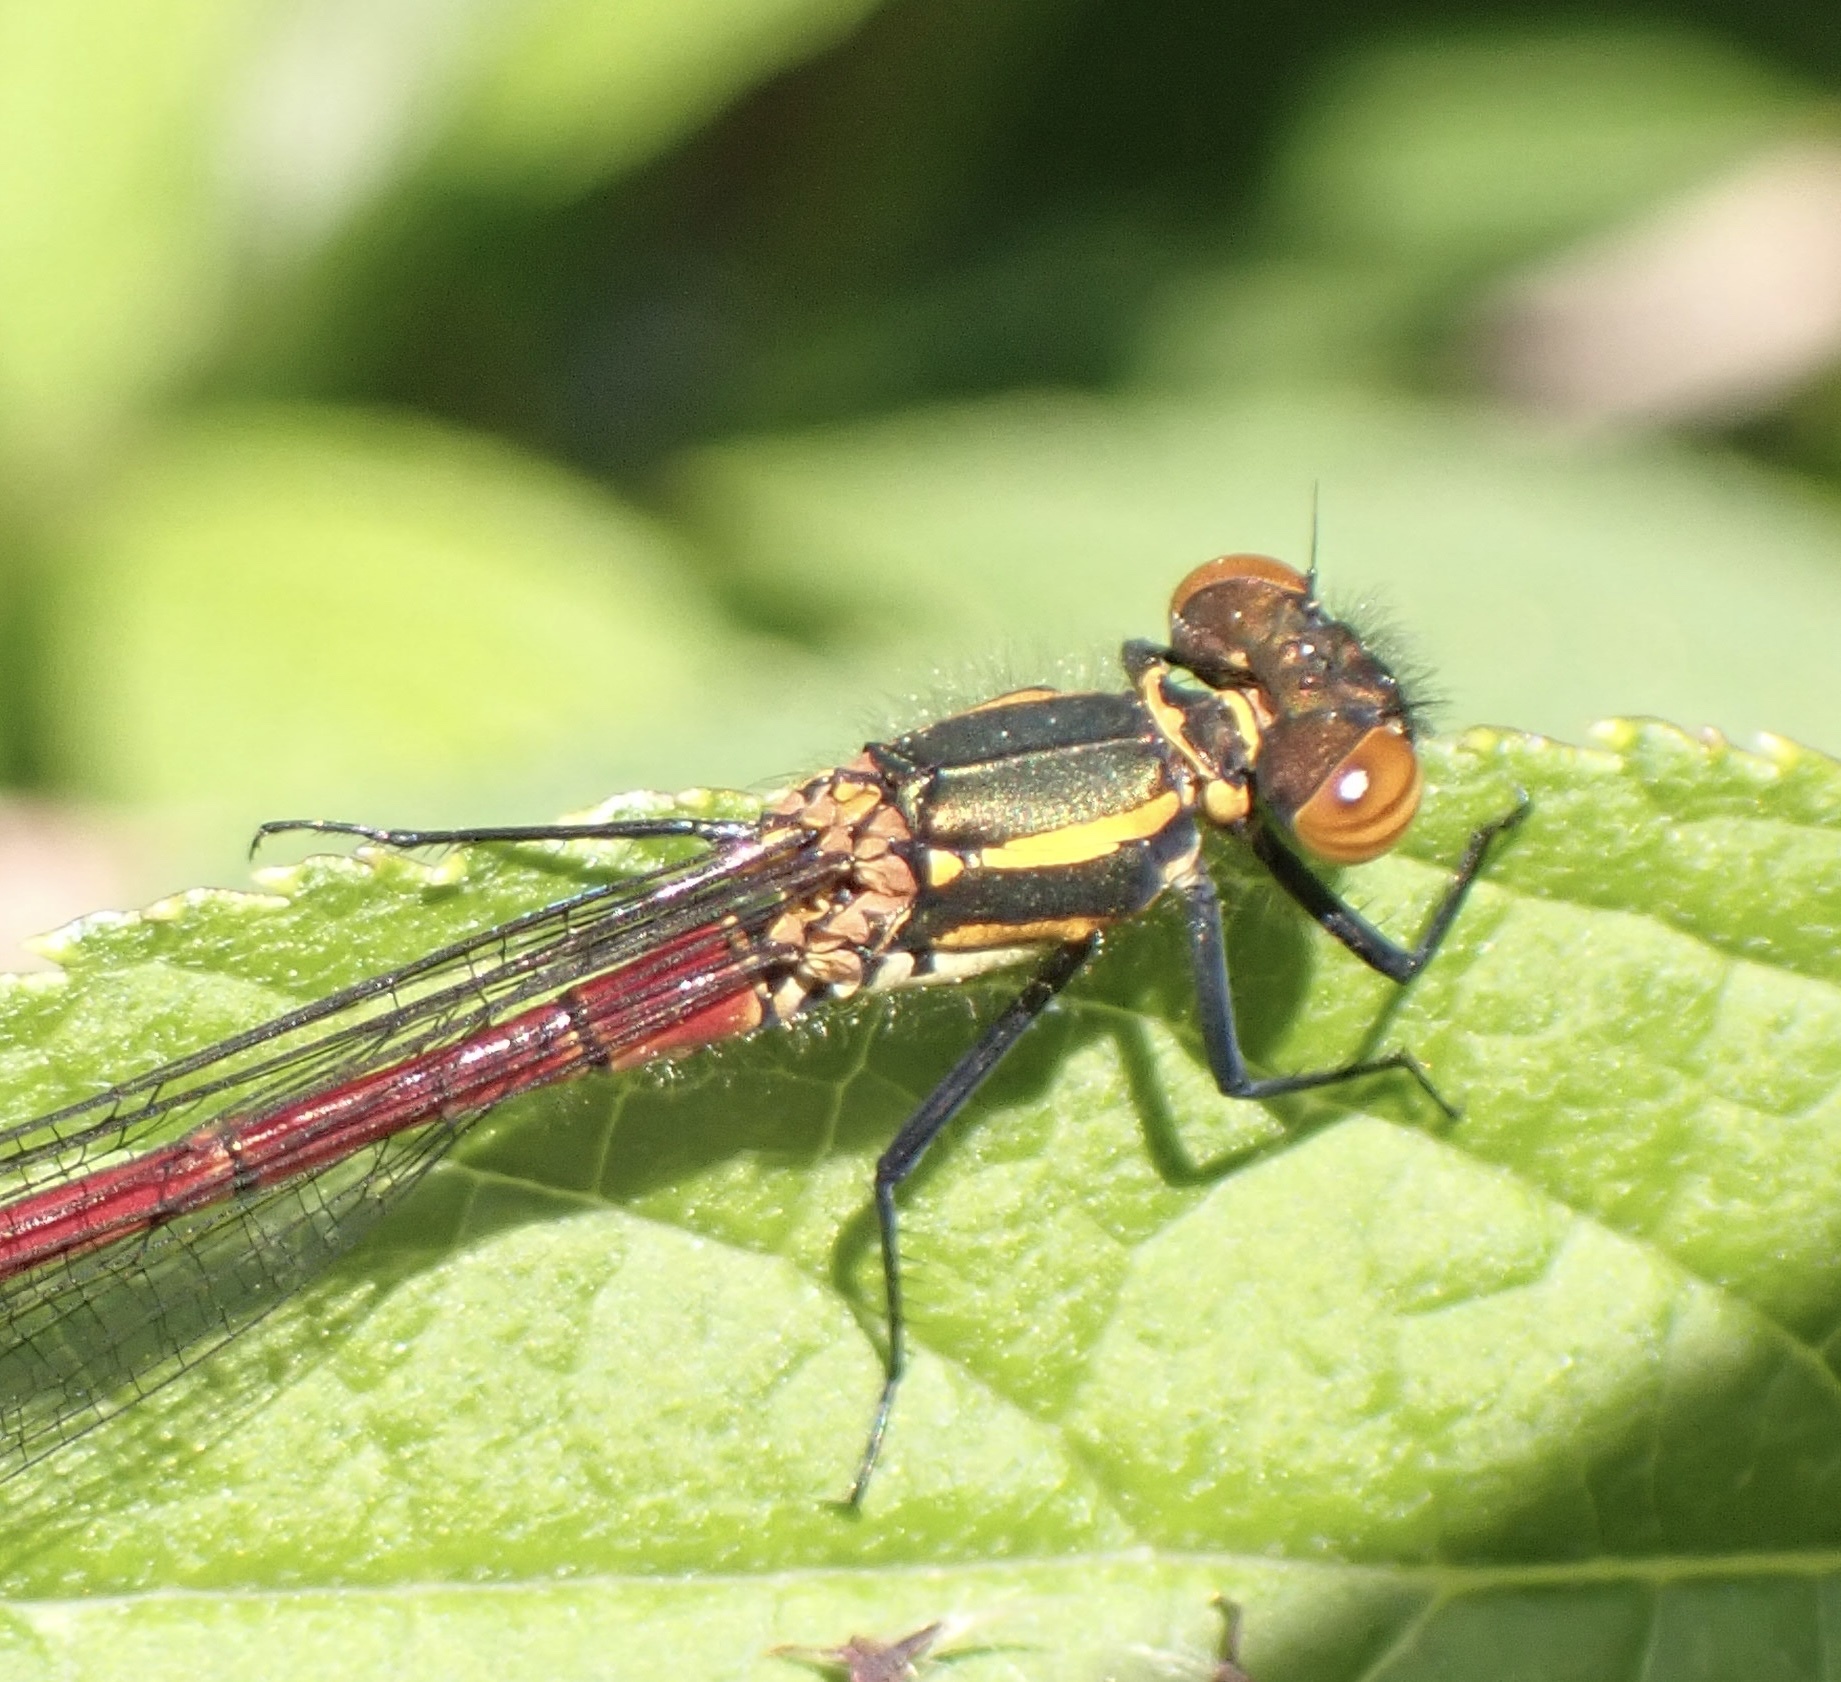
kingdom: Animalia
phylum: Arthropoda
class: Insecta
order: Odonata
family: Coenagrionidae
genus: Pyrrhosoma
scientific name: Pyrrhosoma nymphula
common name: Large red damsel
